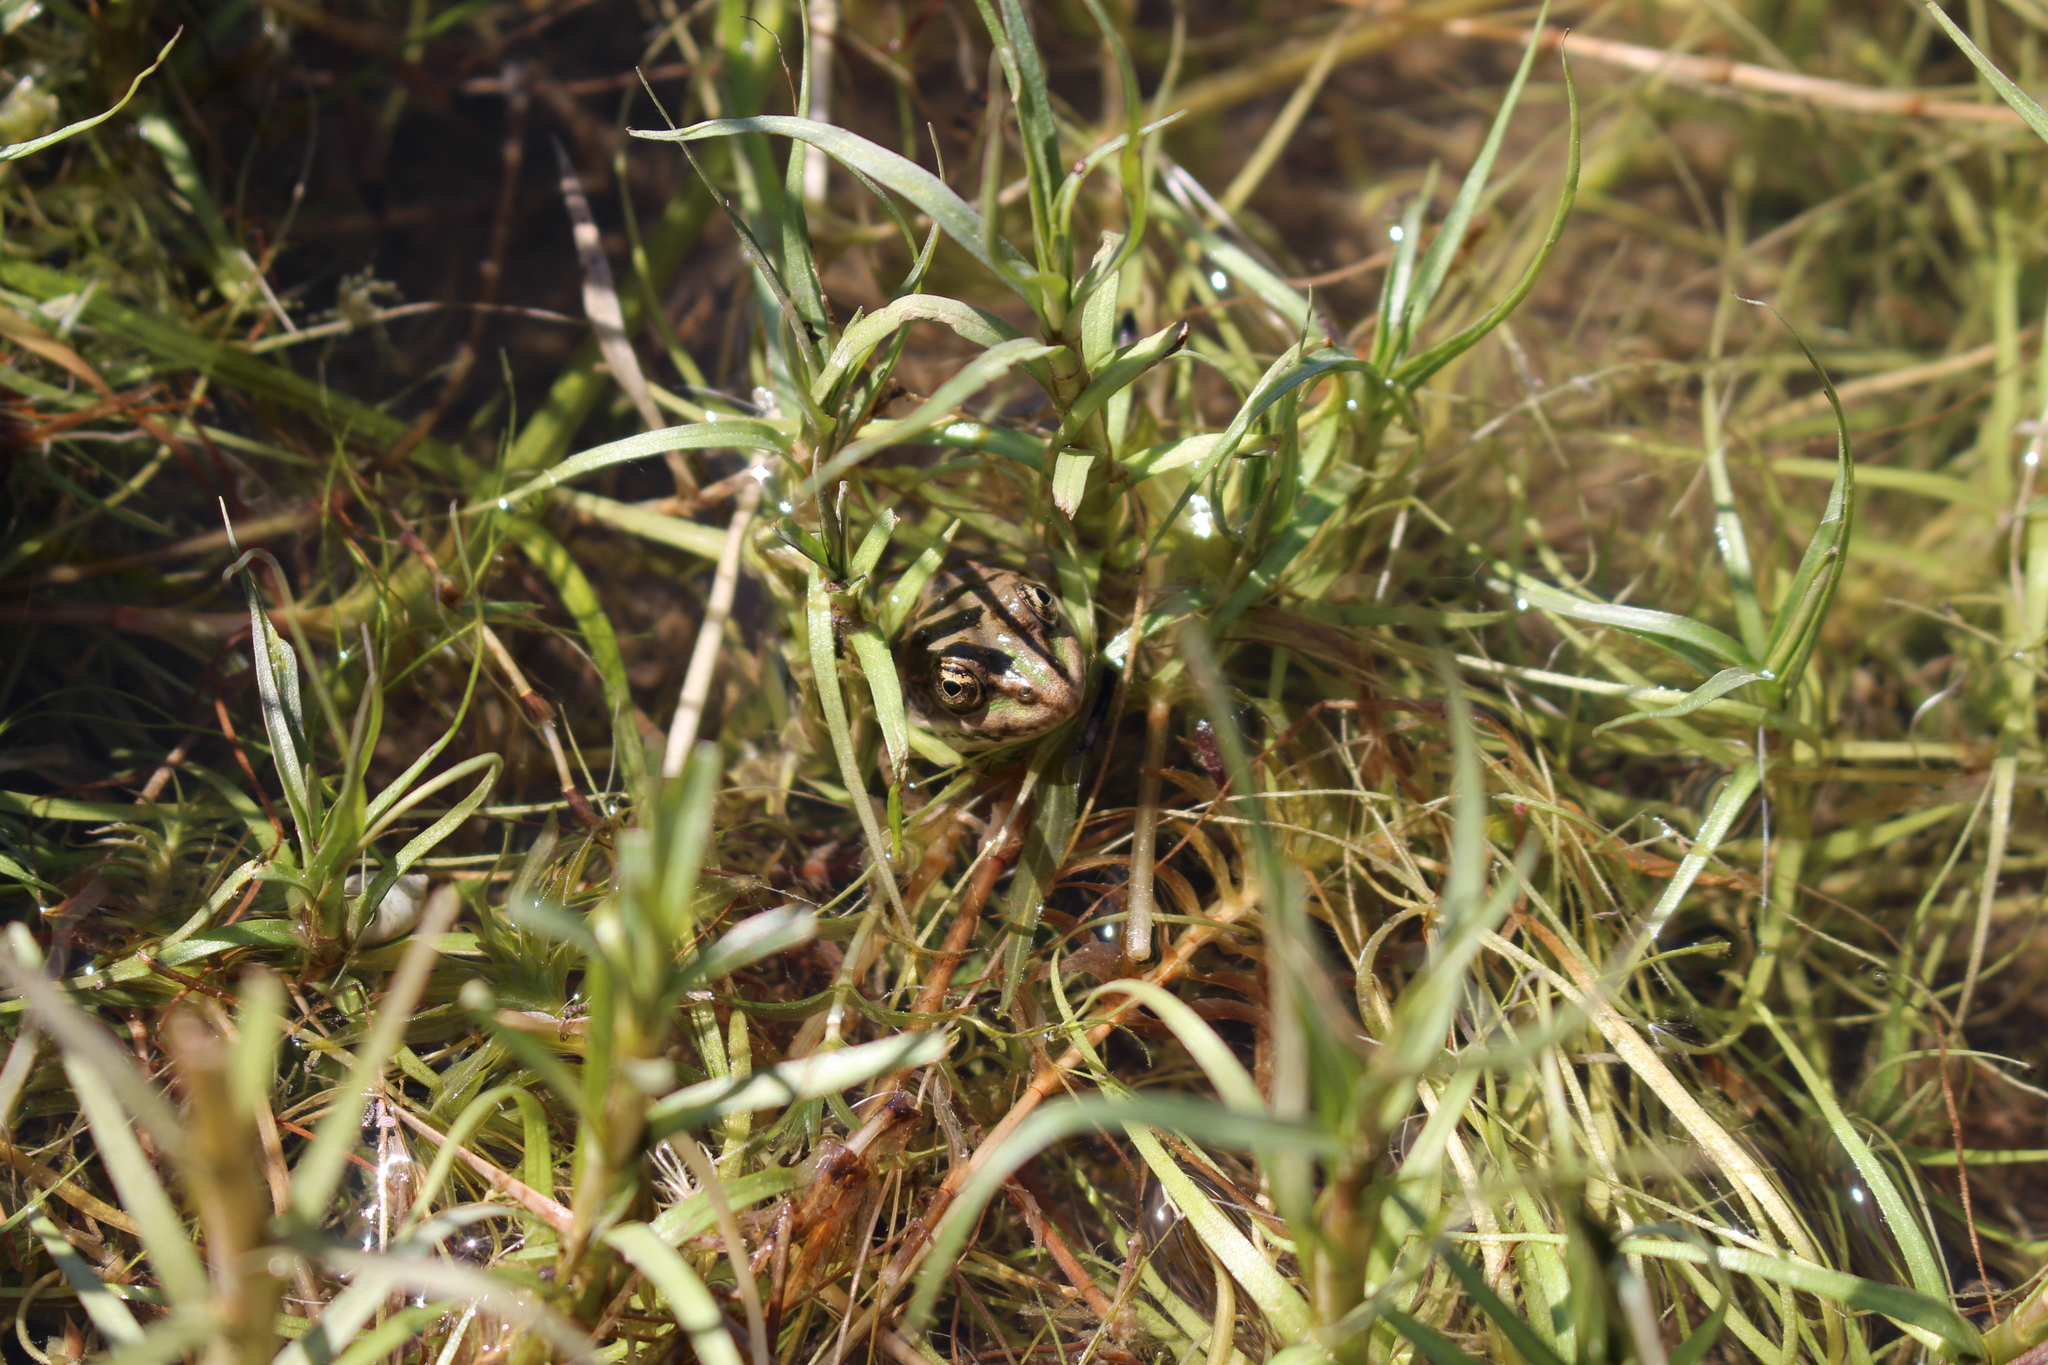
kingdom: Animalia
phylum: Chordata
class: Amphibia
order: Anura
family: Ranidae
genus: Pelophylax
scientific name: Pelophylax perezi
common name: Perez's frog
